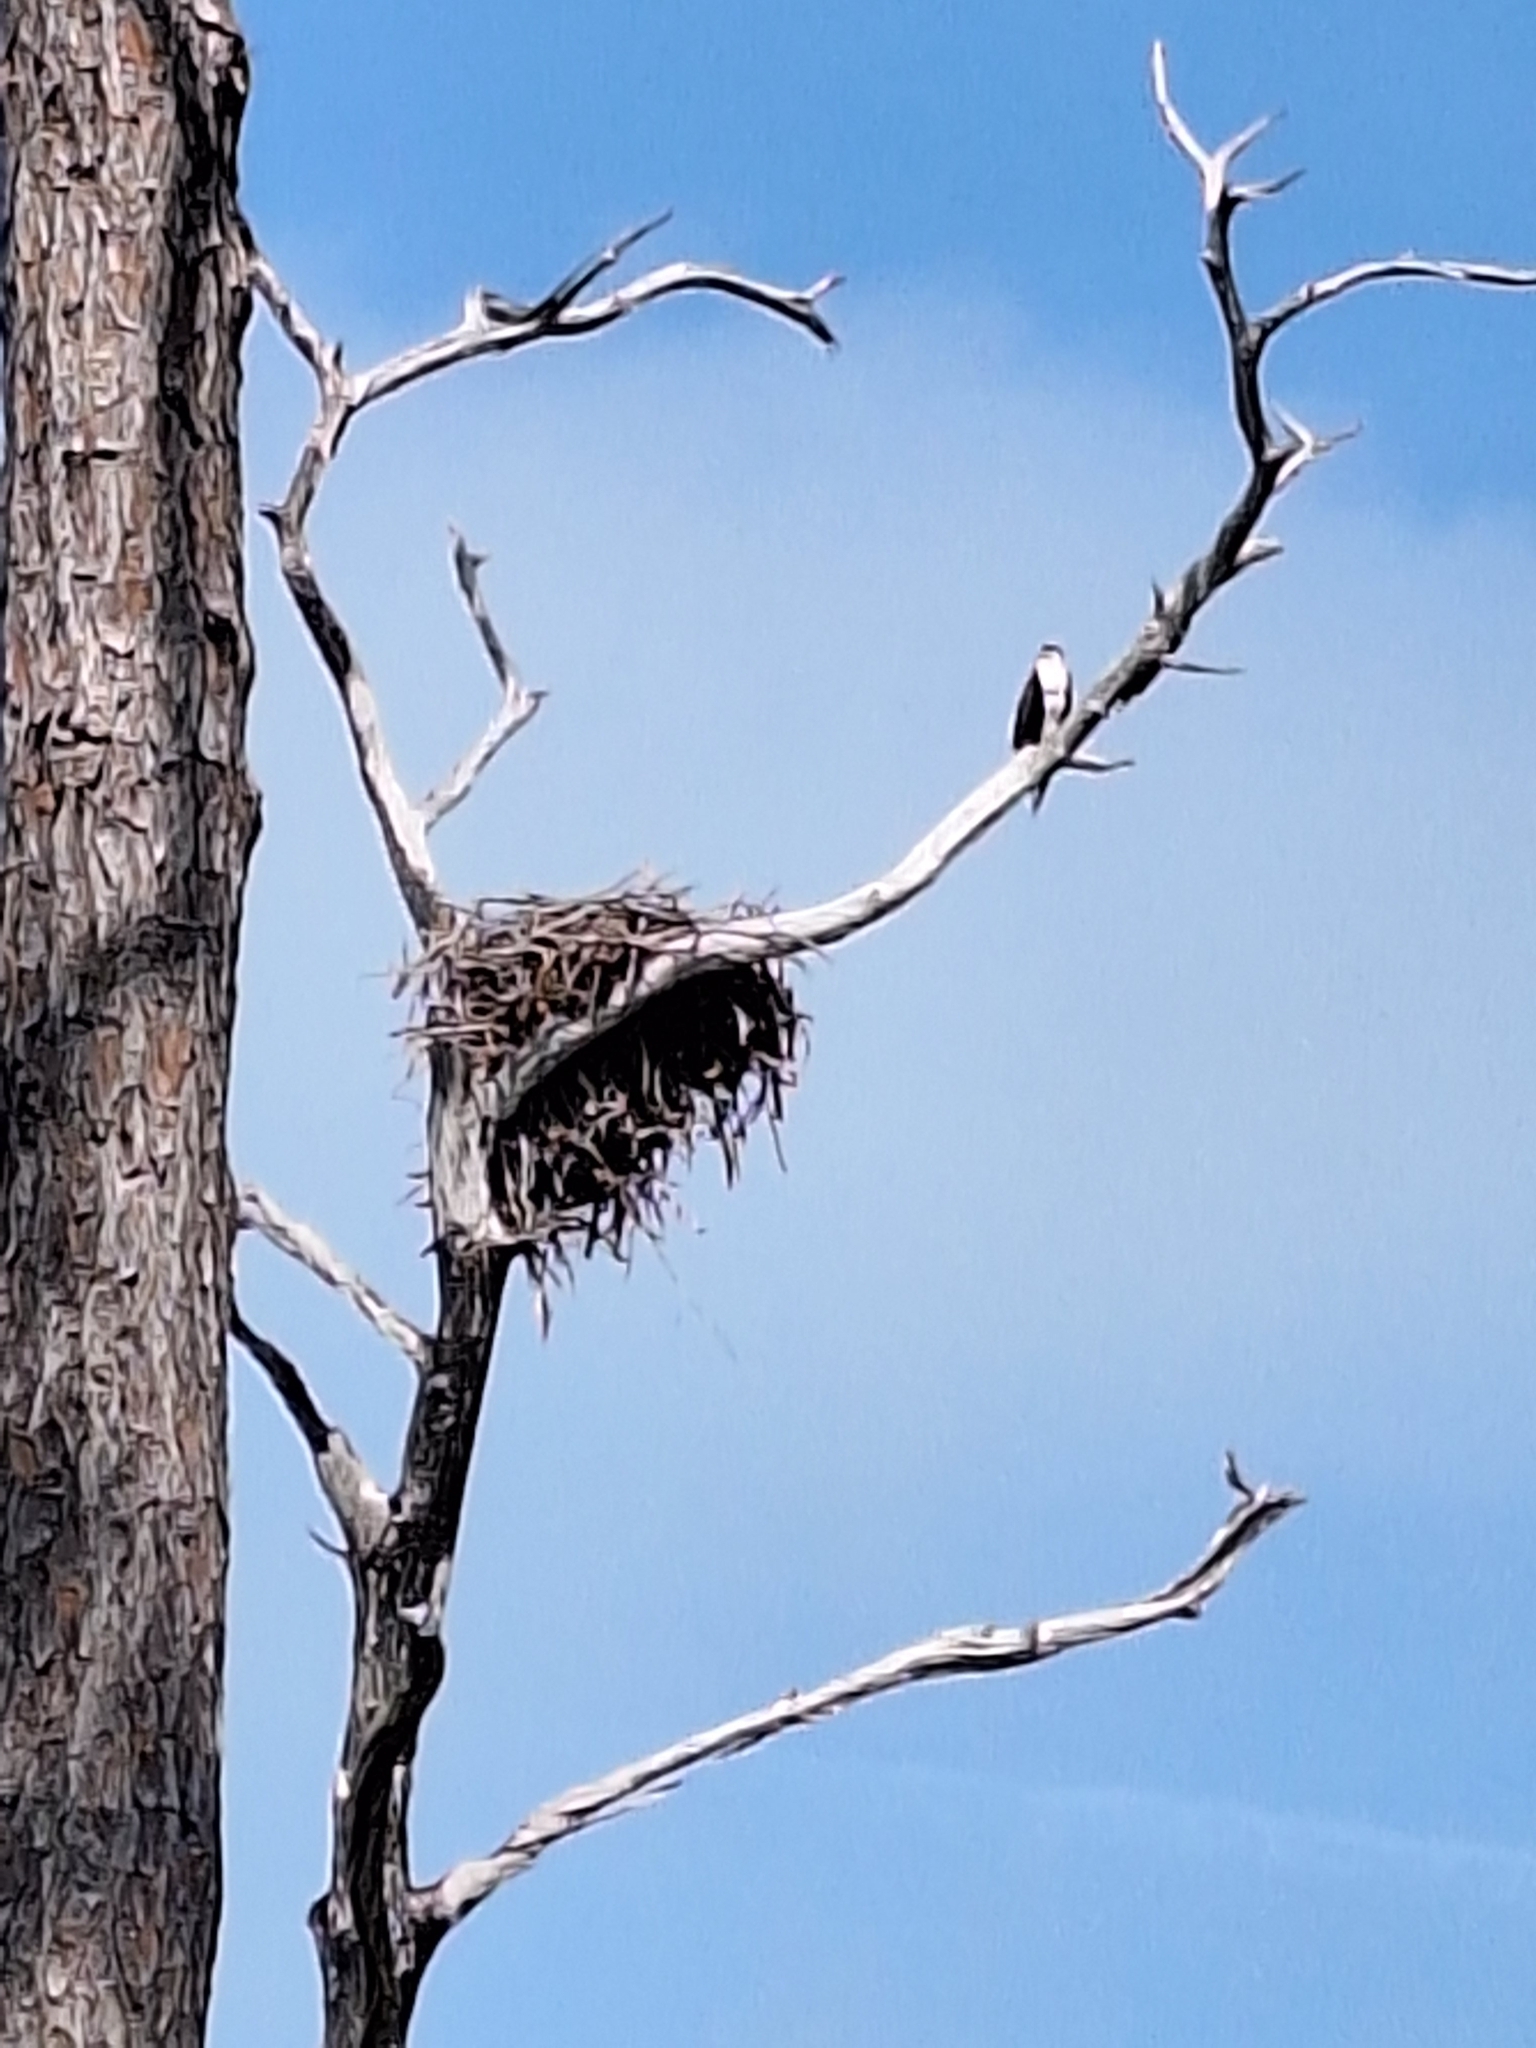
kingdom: Animalia
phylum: Chordata
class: Aves
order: Accipitriformes
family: Pandionidae
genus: Pandion
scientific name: Pandion haliaetus
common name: Osprey
